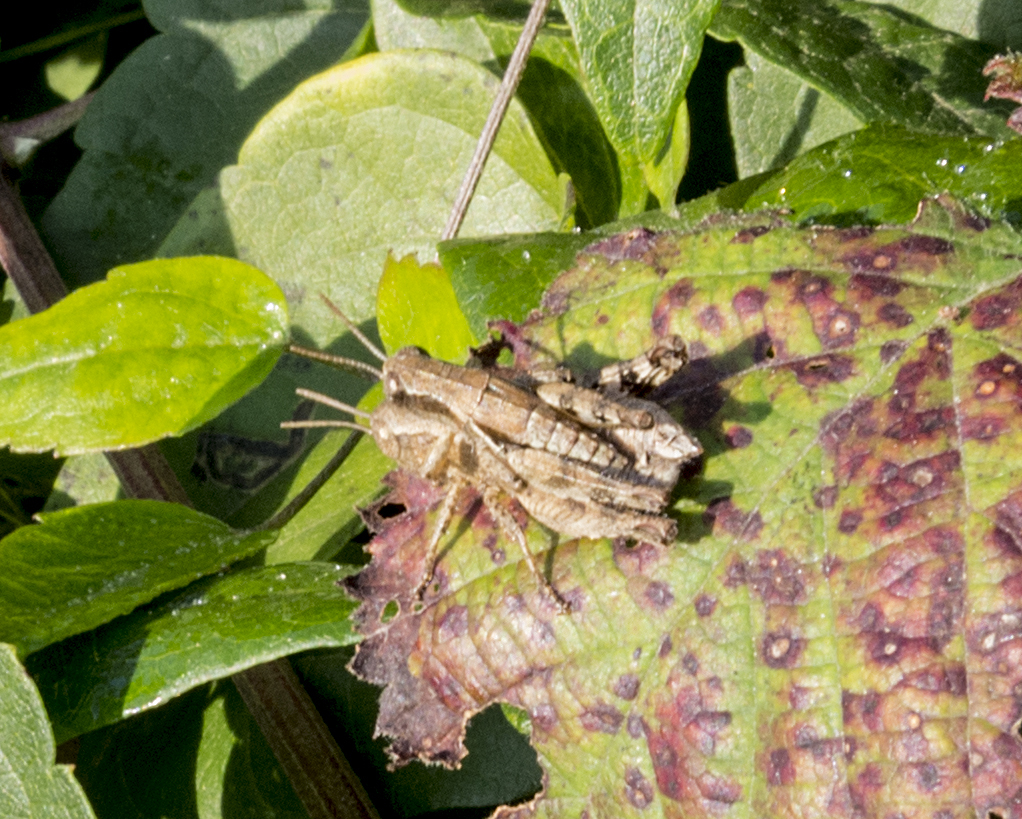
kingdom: Animalia
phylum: Arthropoda
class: Insecta
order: Orthoptera
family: Acrididae
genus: Pezotettix
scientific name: Pezotettix giornae
